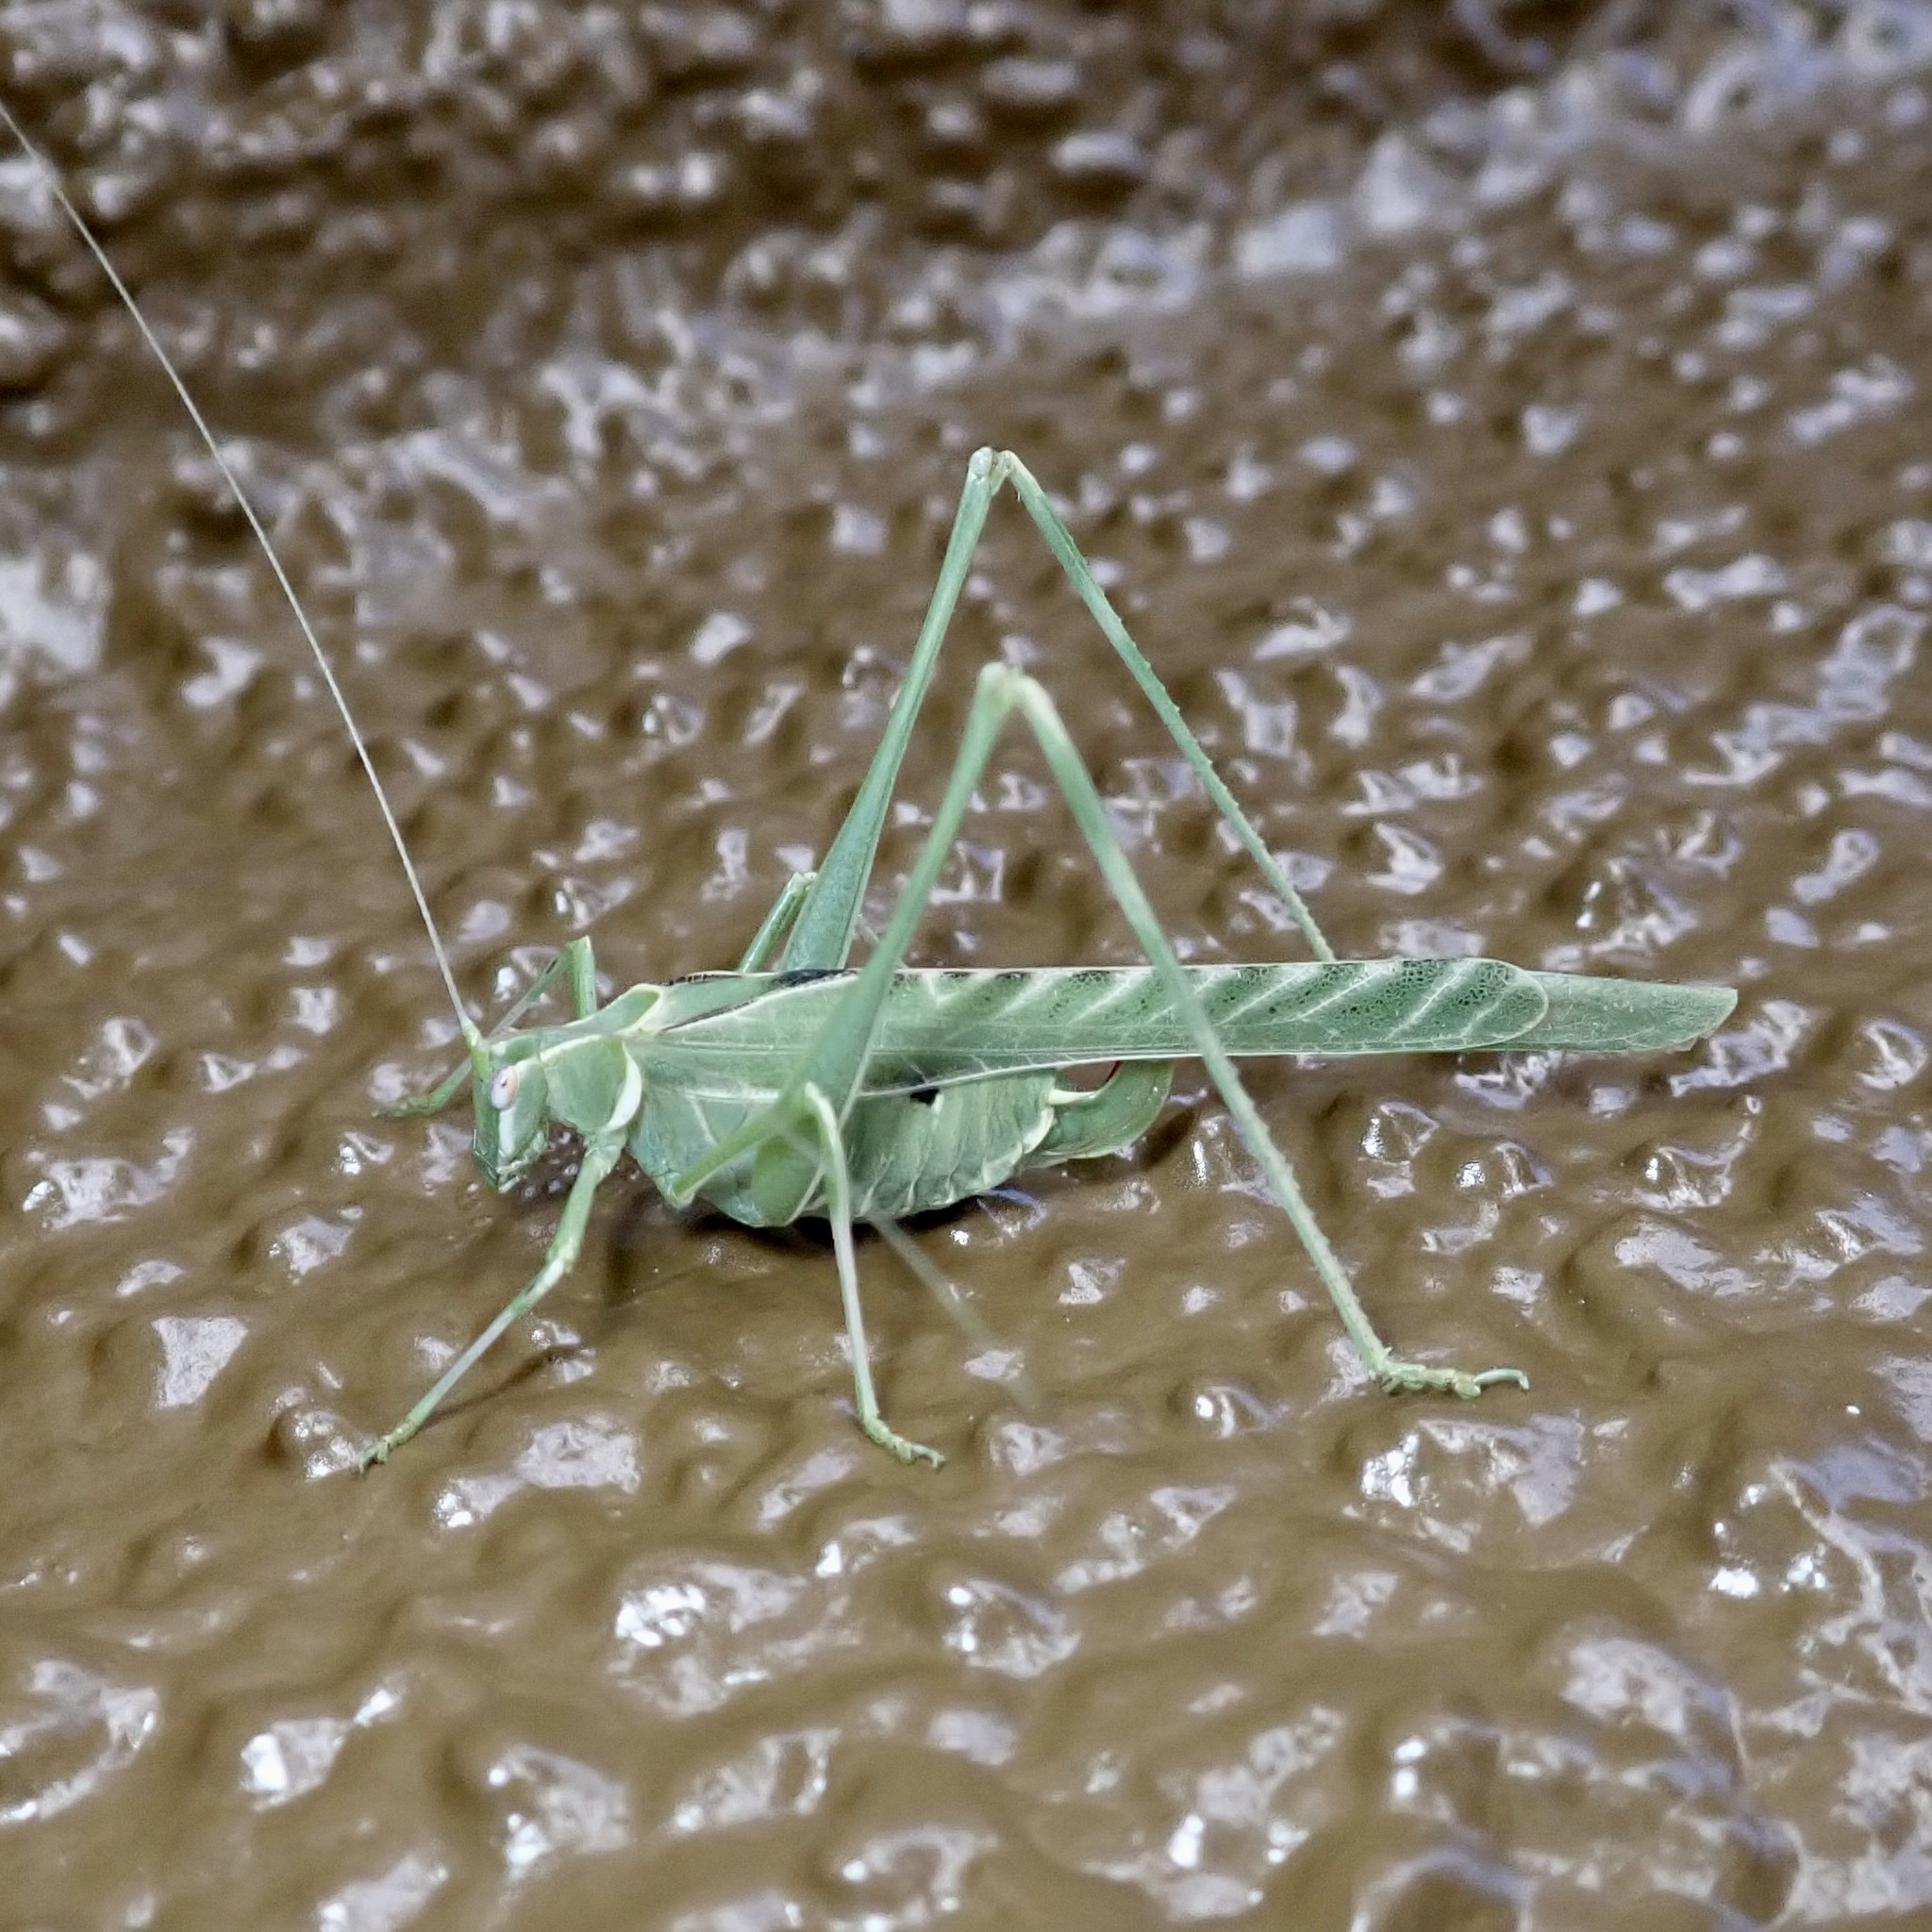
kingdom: Animalia
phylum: Arthropoda
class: Insecta
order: Orthoptera
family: Tettigoniidae
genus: Insara
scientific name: Insara elegans
